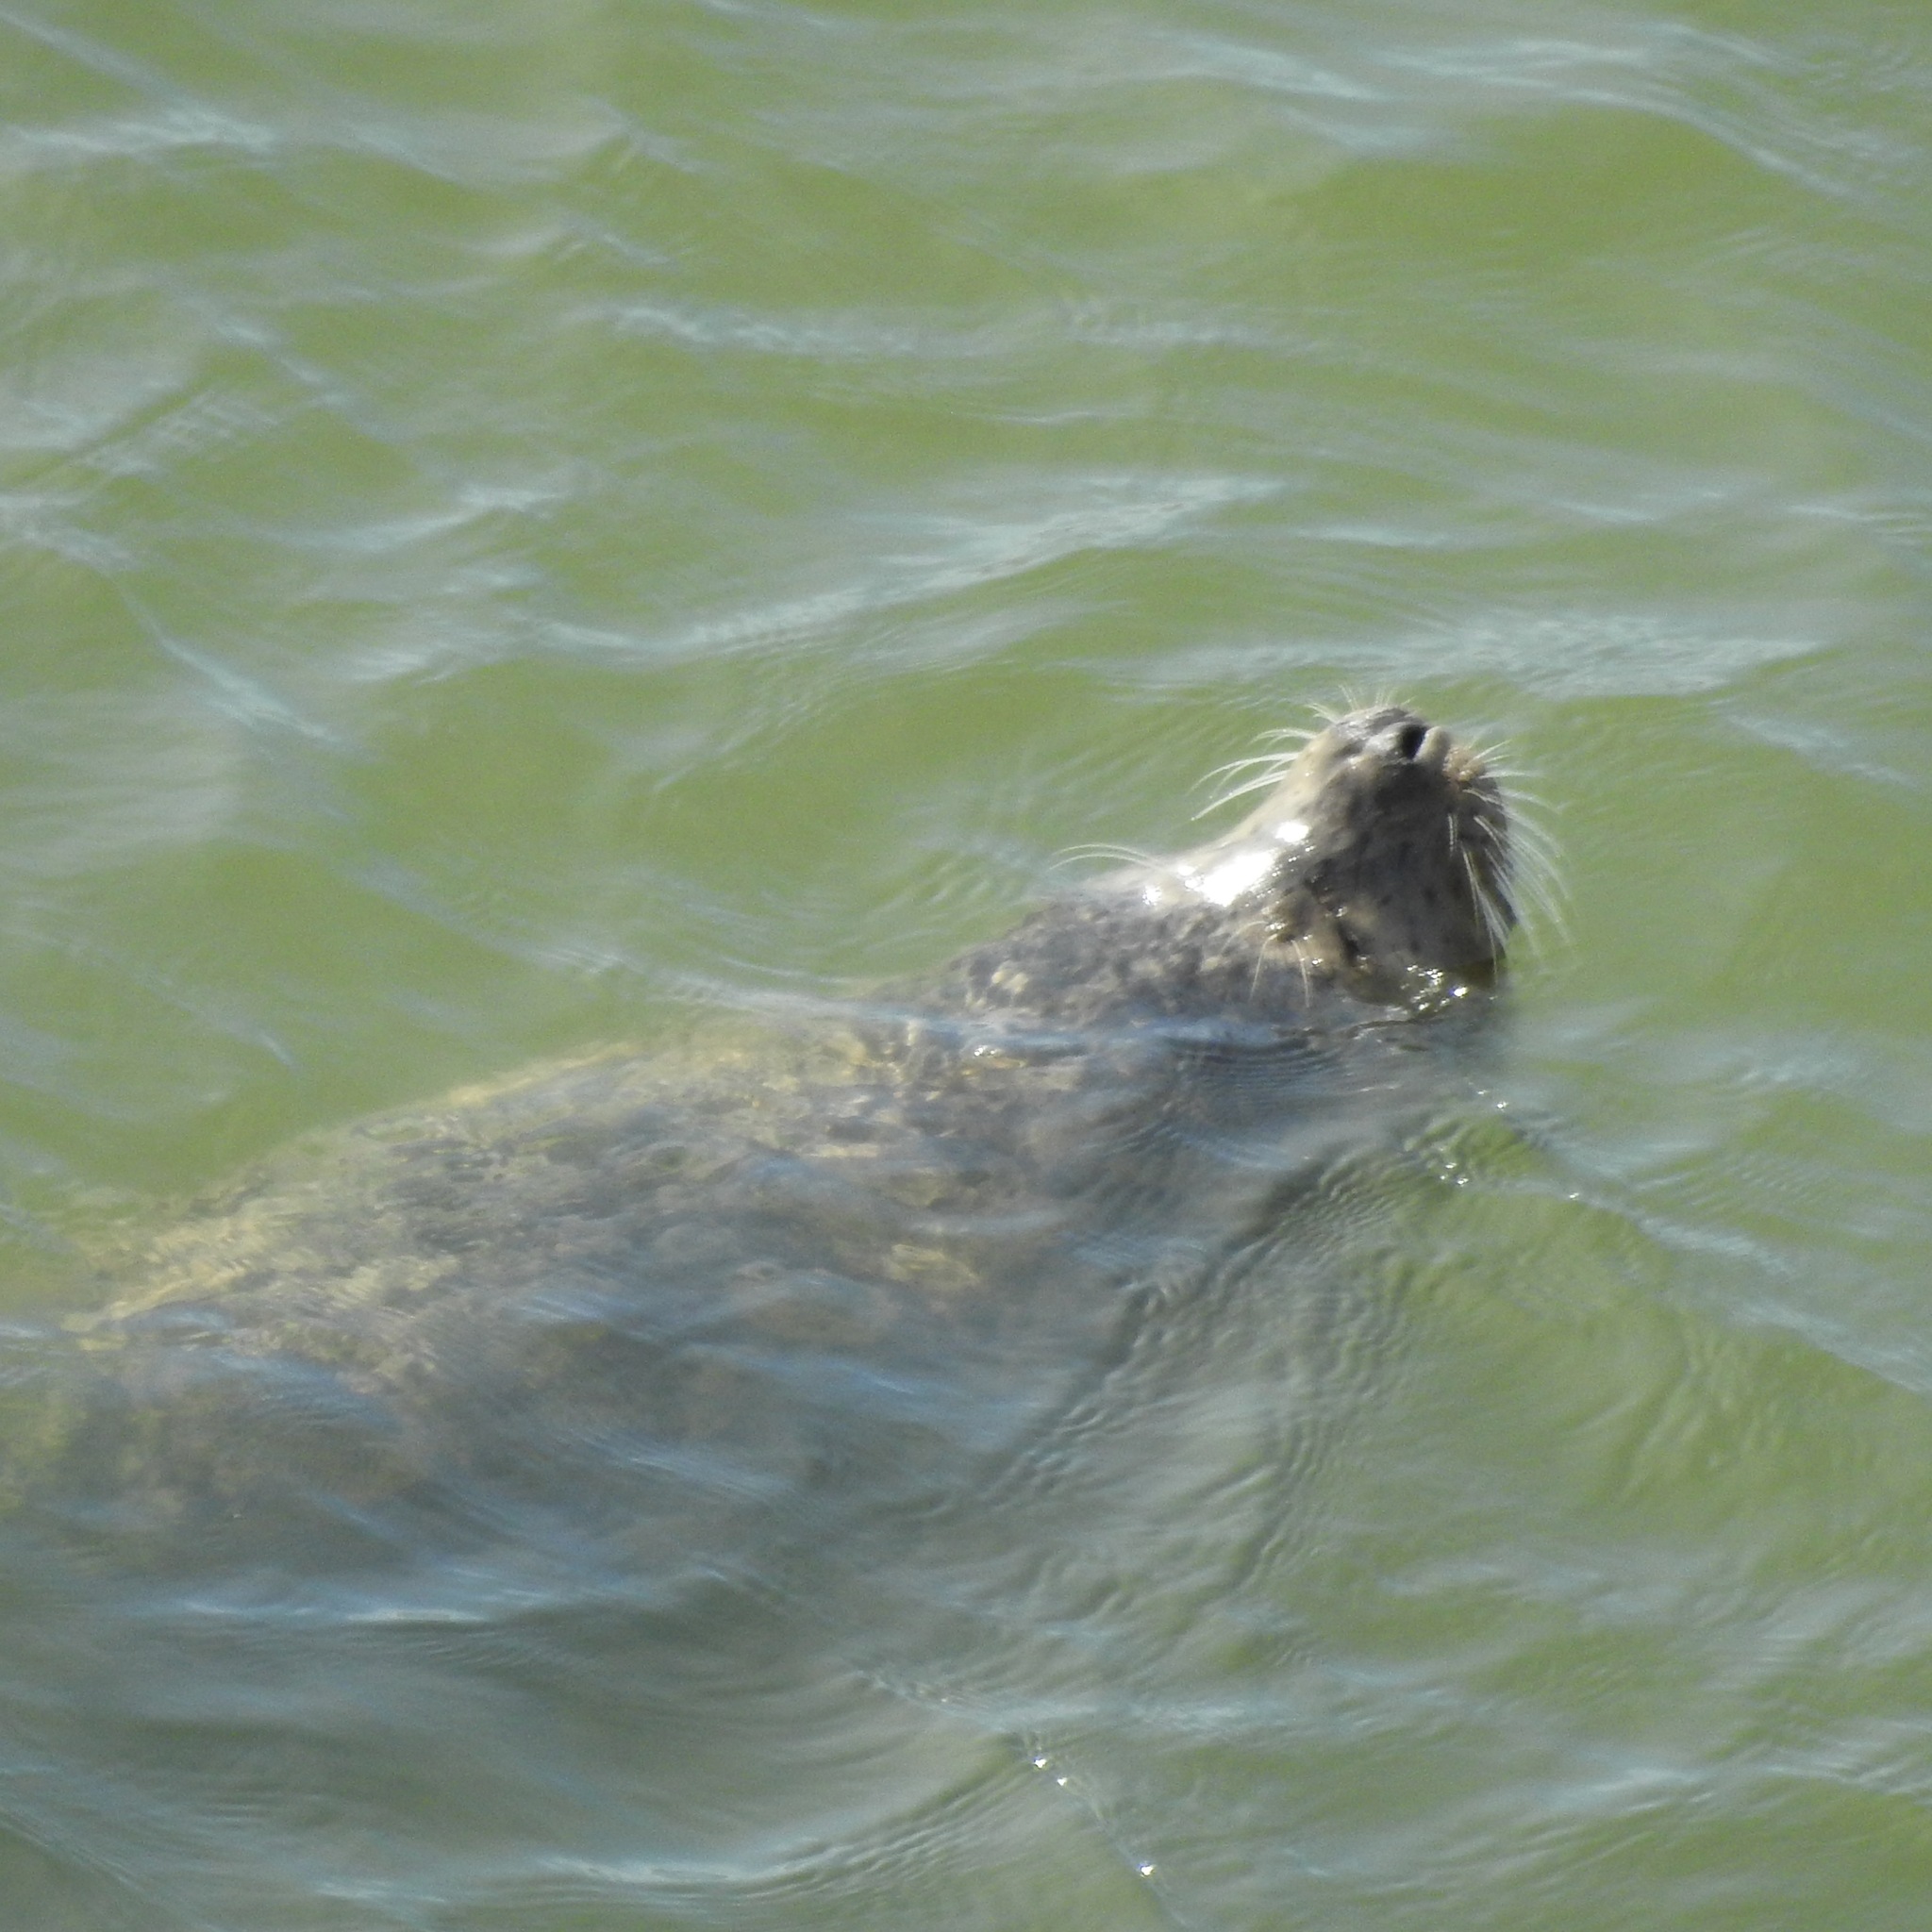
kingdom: Animalia
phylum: Chordata
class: Mammalia
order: Carnivora
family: Phocidae
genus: Phoca
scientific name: Phoca vitulina
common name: Harbor seal
